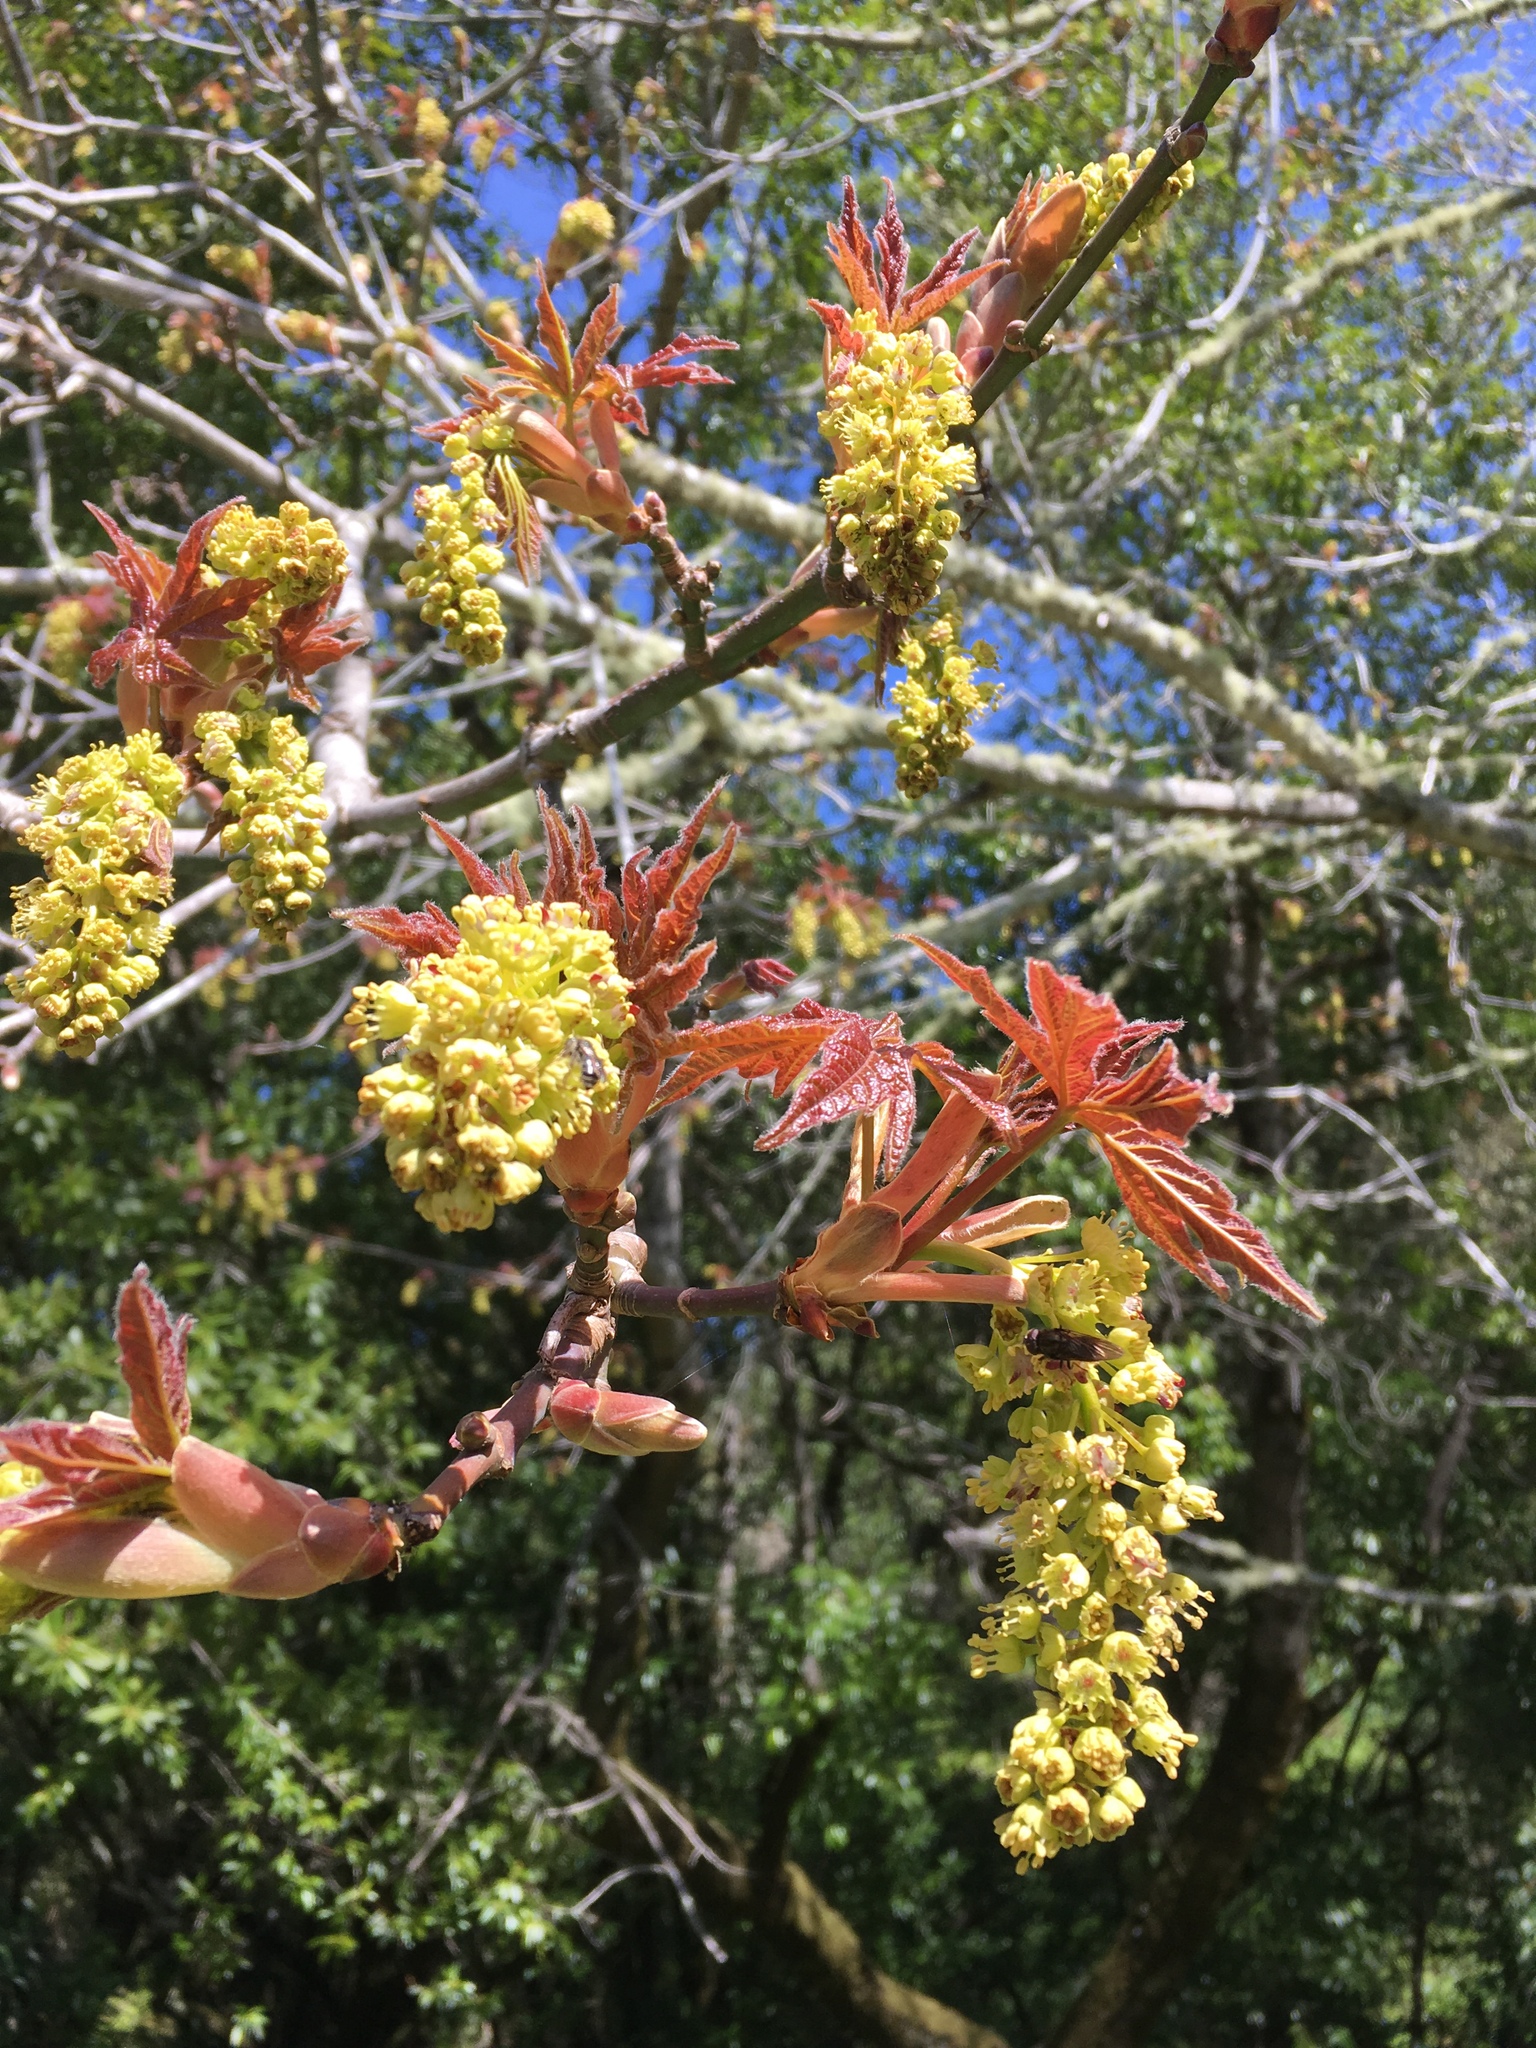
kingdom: Plantae
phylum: Tracheophyta
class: Magnoliopsida
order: Sapindales
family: Sapindaceae
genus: Acer
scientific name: Acer macrophyllum
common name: Oregon maple
